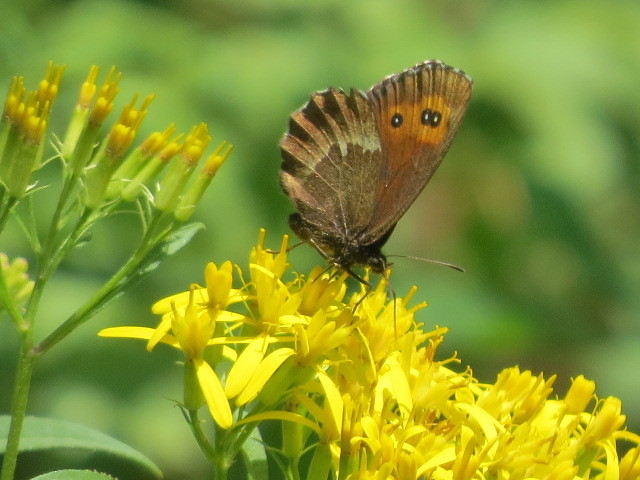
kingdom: Animalia
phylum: Arthropoda
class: Insecta
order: Lepidoptera
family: Nymphalidae
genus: Erebia
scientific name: Erebia euryale
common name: Large ringlet
